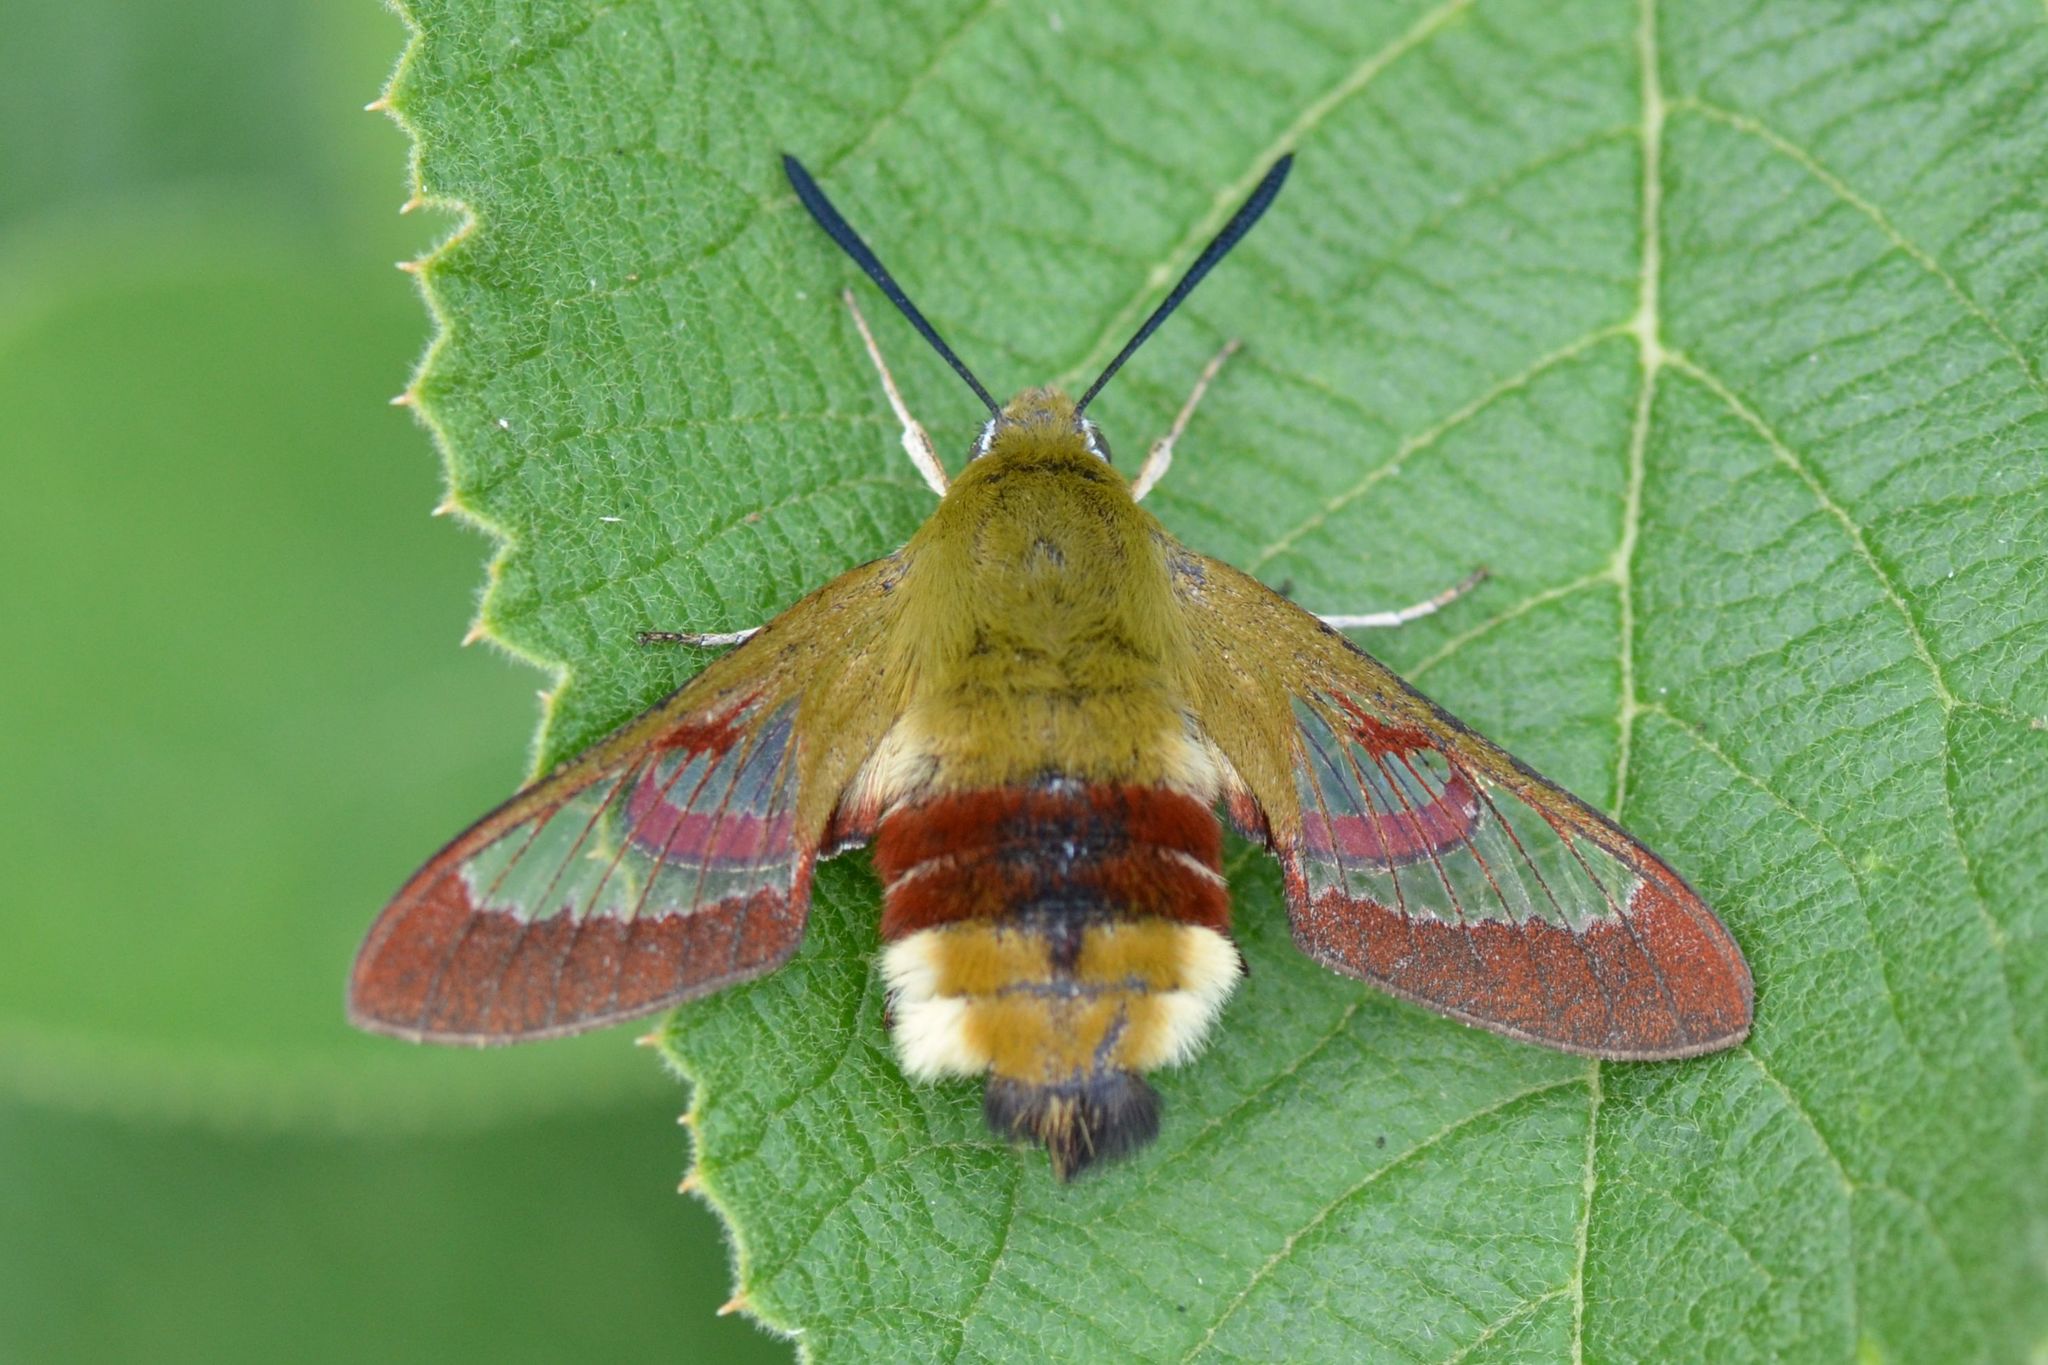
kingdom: Animalia
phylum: Arthropoda
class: Insecta
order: Lepidoptera
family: Sphingidae
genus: Hemaris
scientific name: Hemaris fuciformis
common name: Broad-bordered bee hawk-moth
